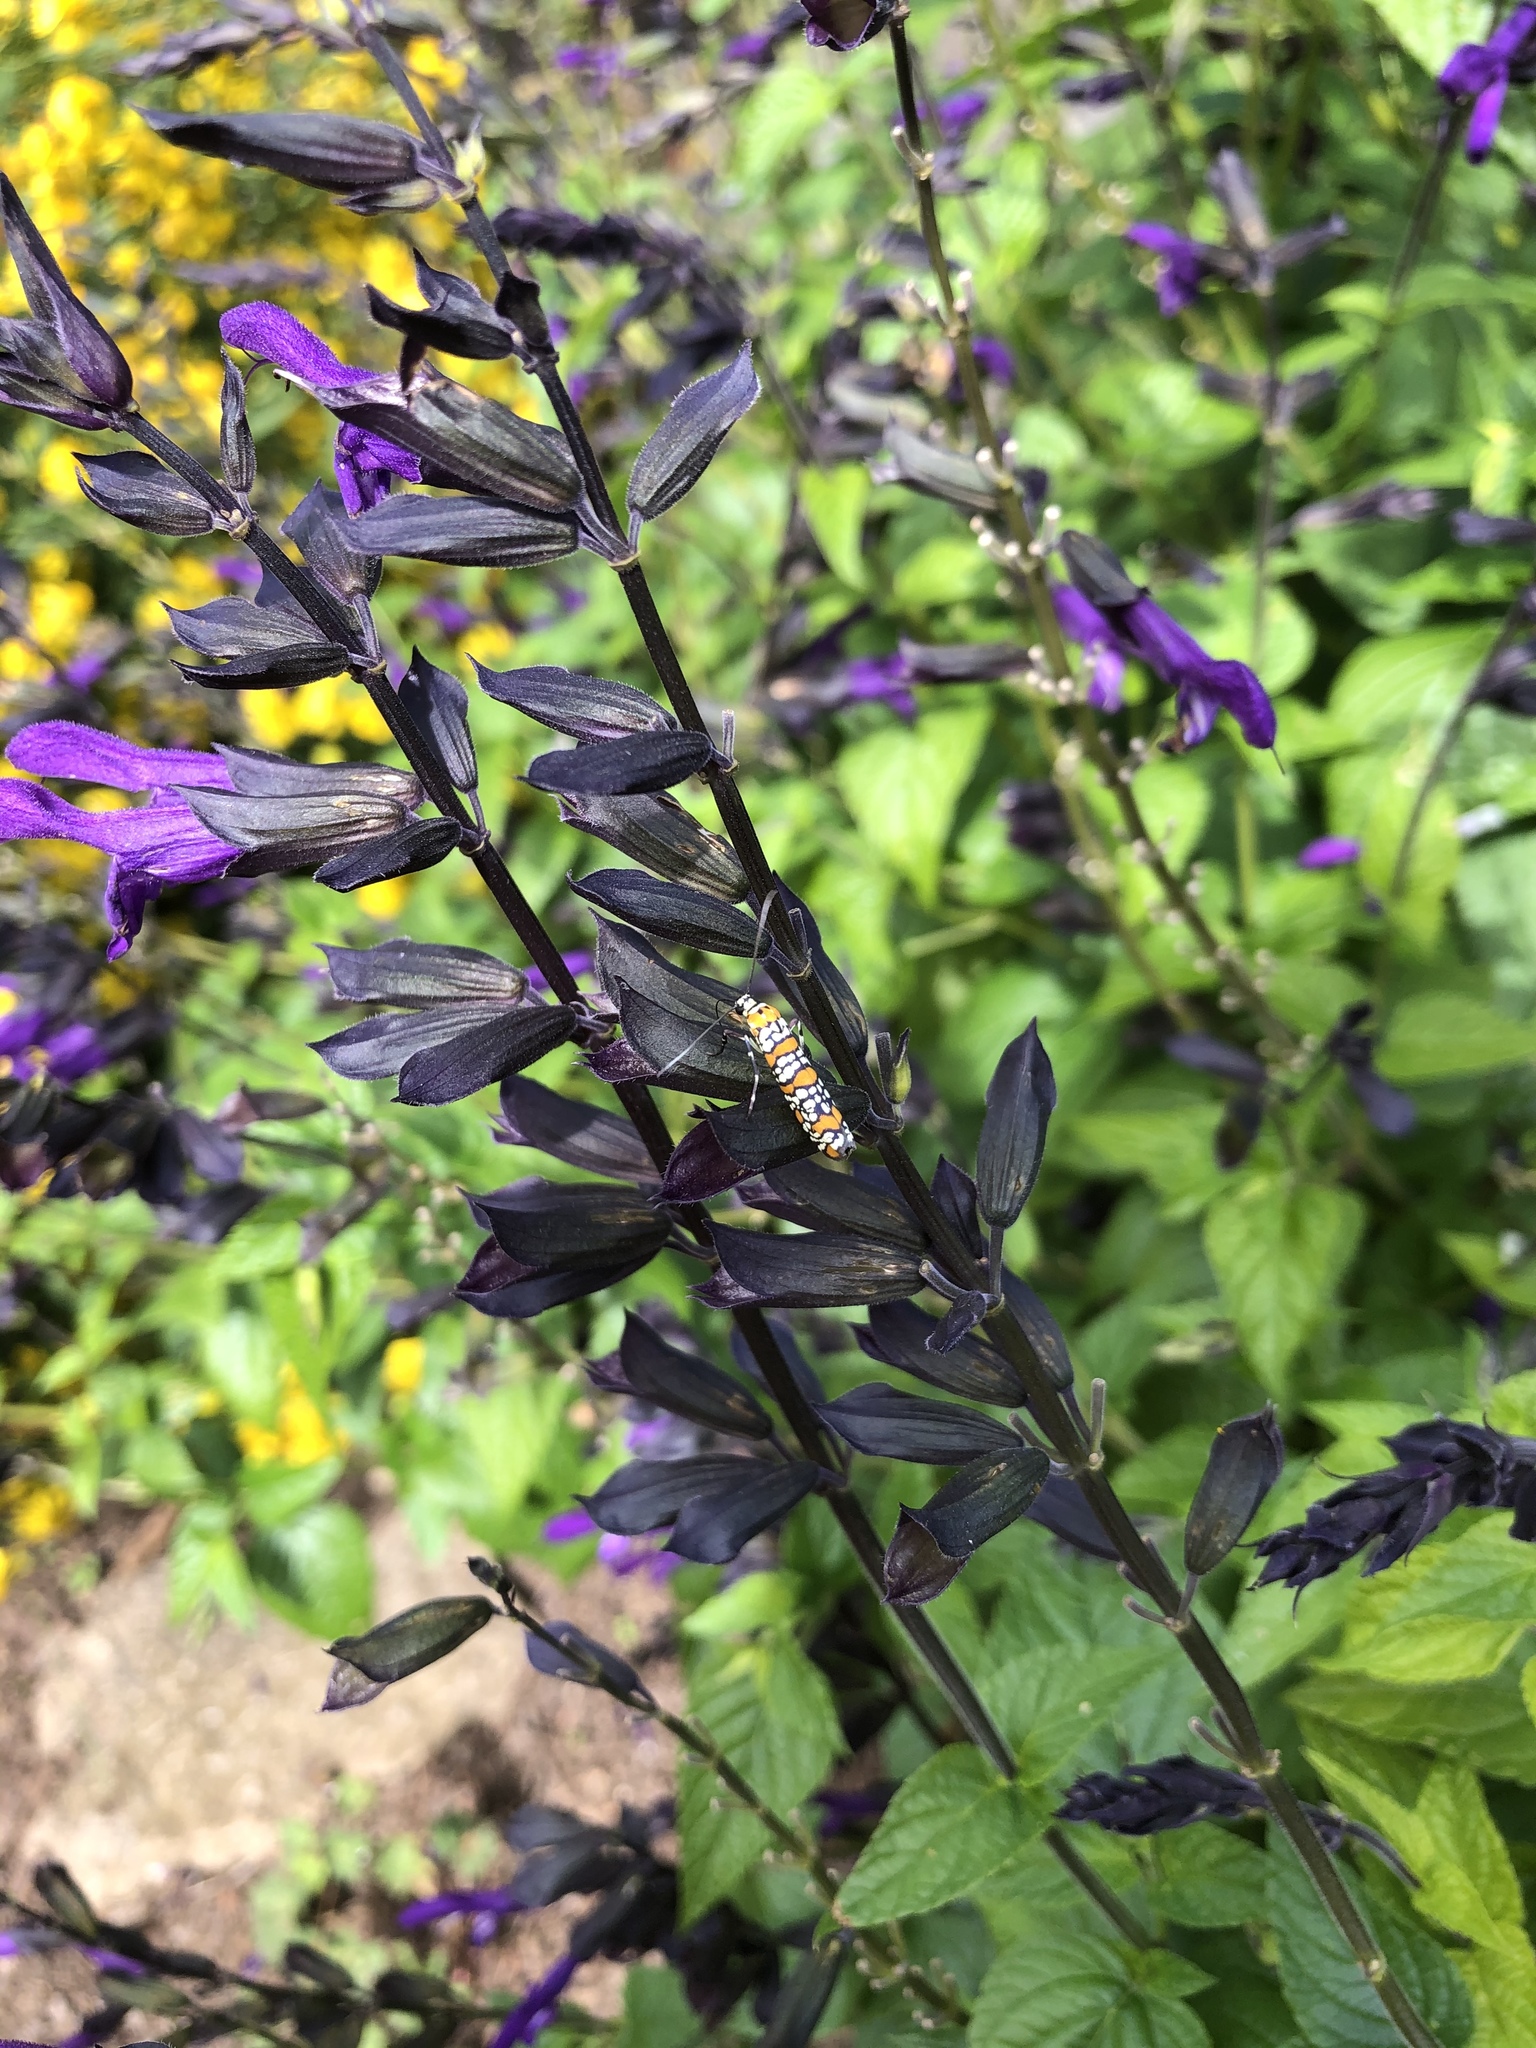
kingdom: Animalia
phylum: Arthropoda
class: Insecta
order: Lepidoptera
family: Attevidae
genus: Atteva
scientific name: Atteva punctella
